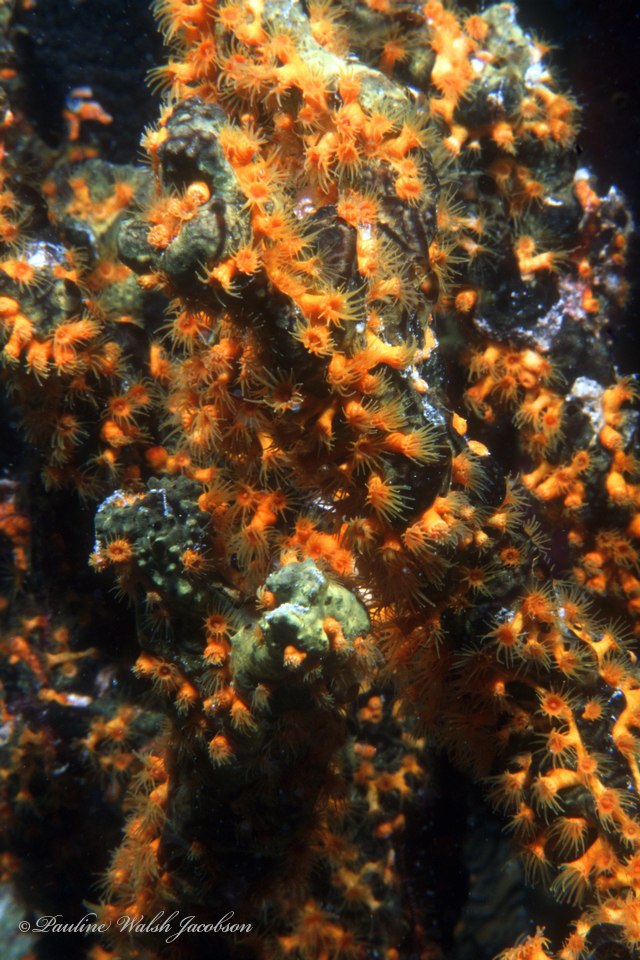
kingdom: Animalia
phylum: Cnidaria
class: Anthozoa
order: Zoantharia
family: Parazoanthidae
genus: Parazoanthus
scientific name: Parazoanthus swiftii
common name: Golden zoanthid
